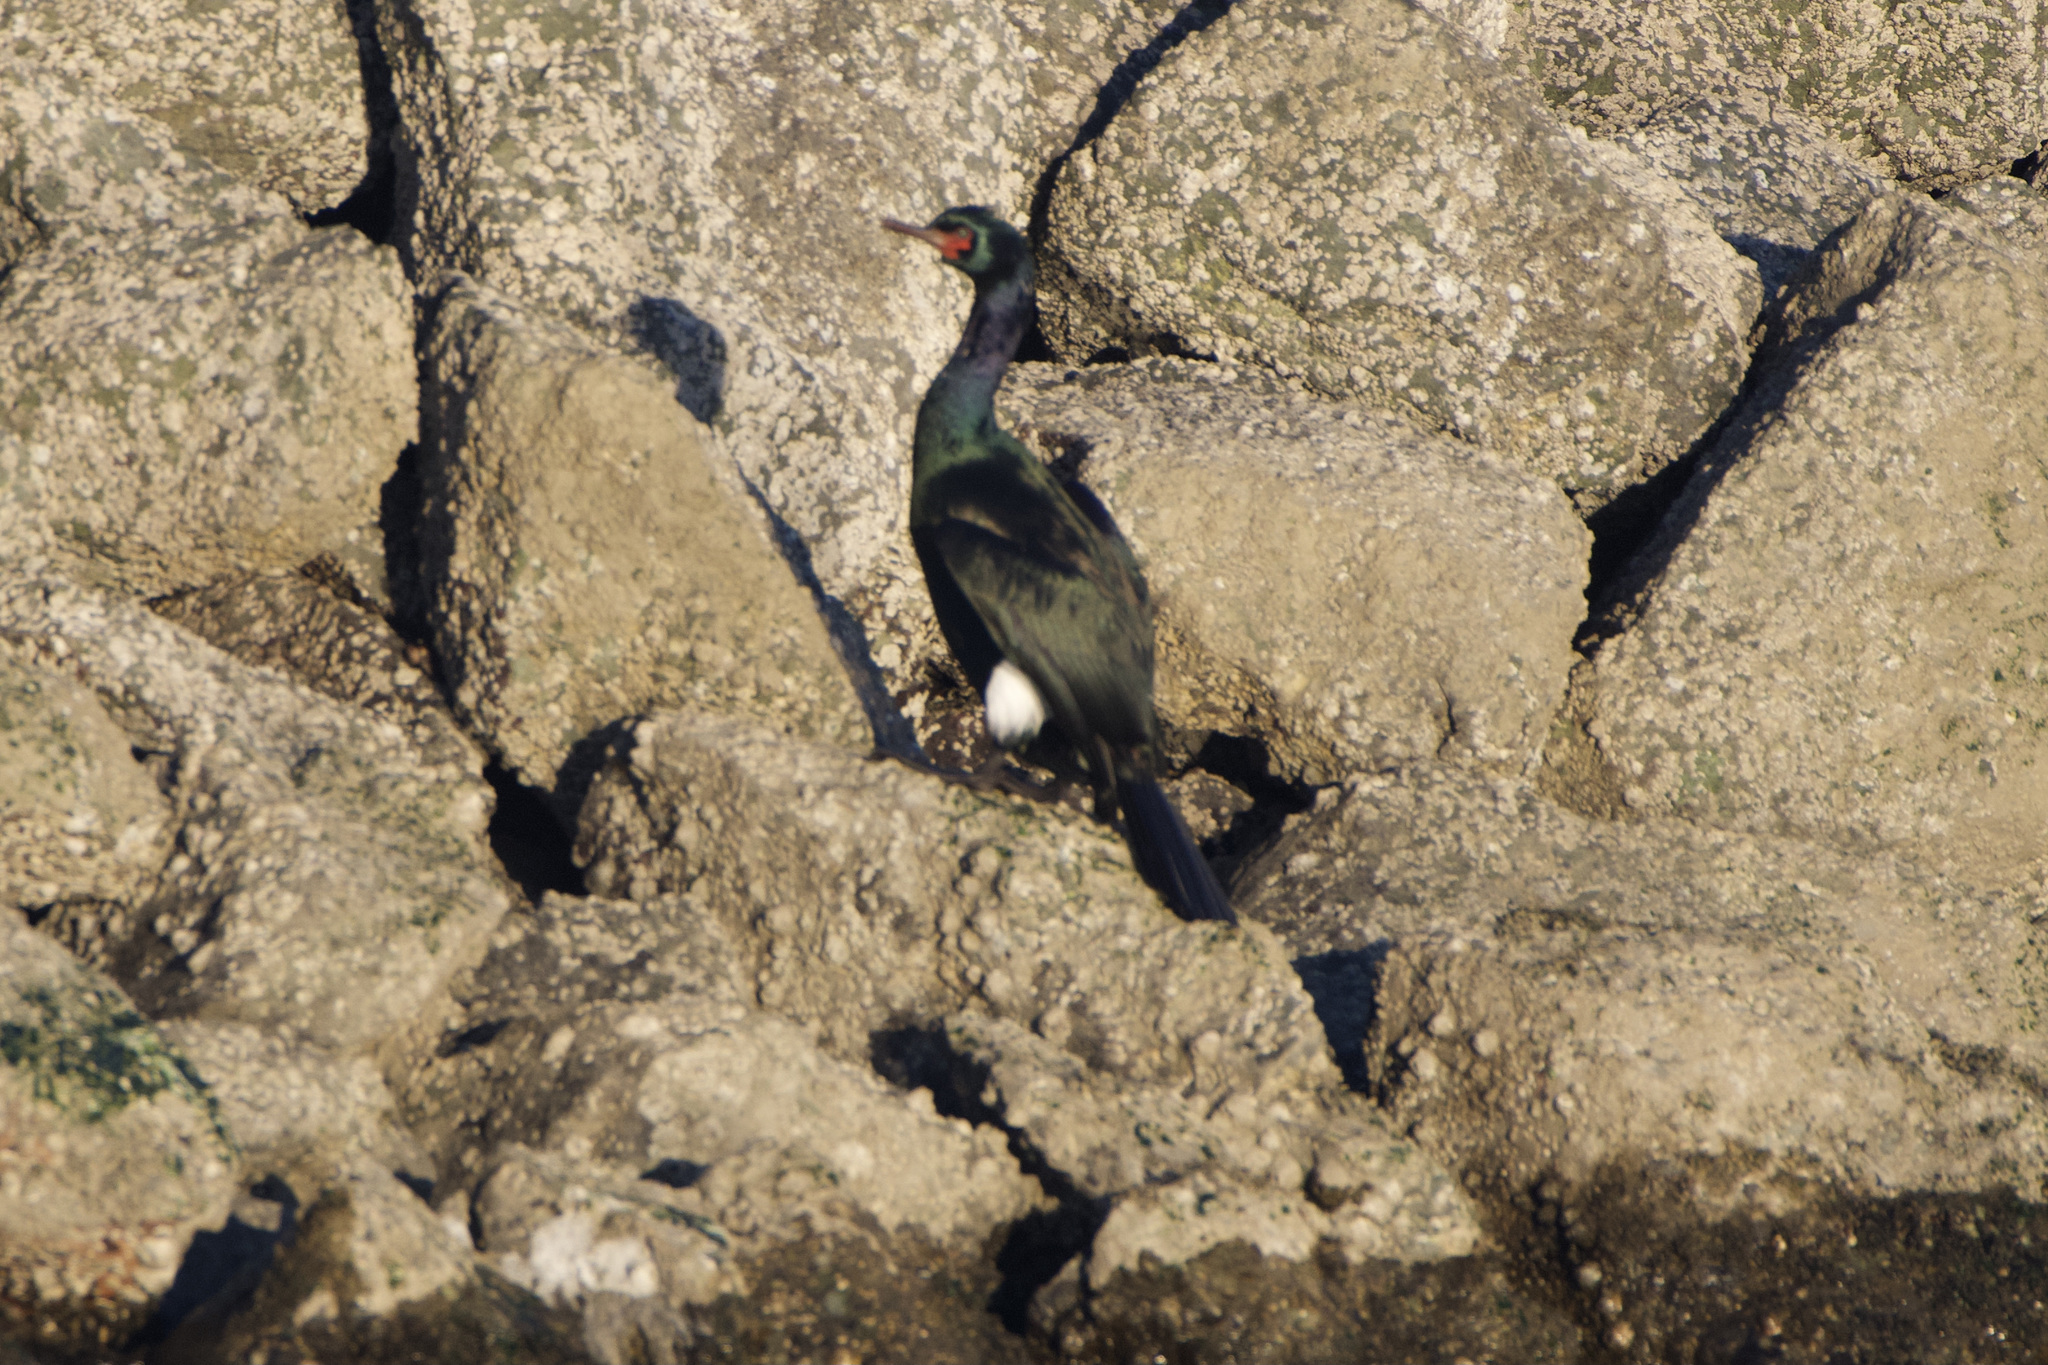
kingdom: Animalia
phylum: Chordata
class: Aves
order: Suliformes
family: Phalacrocoracidae
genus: Phalacrocorax
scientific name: Phalacrocorax pelagicus
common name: Pelagic cormorant
